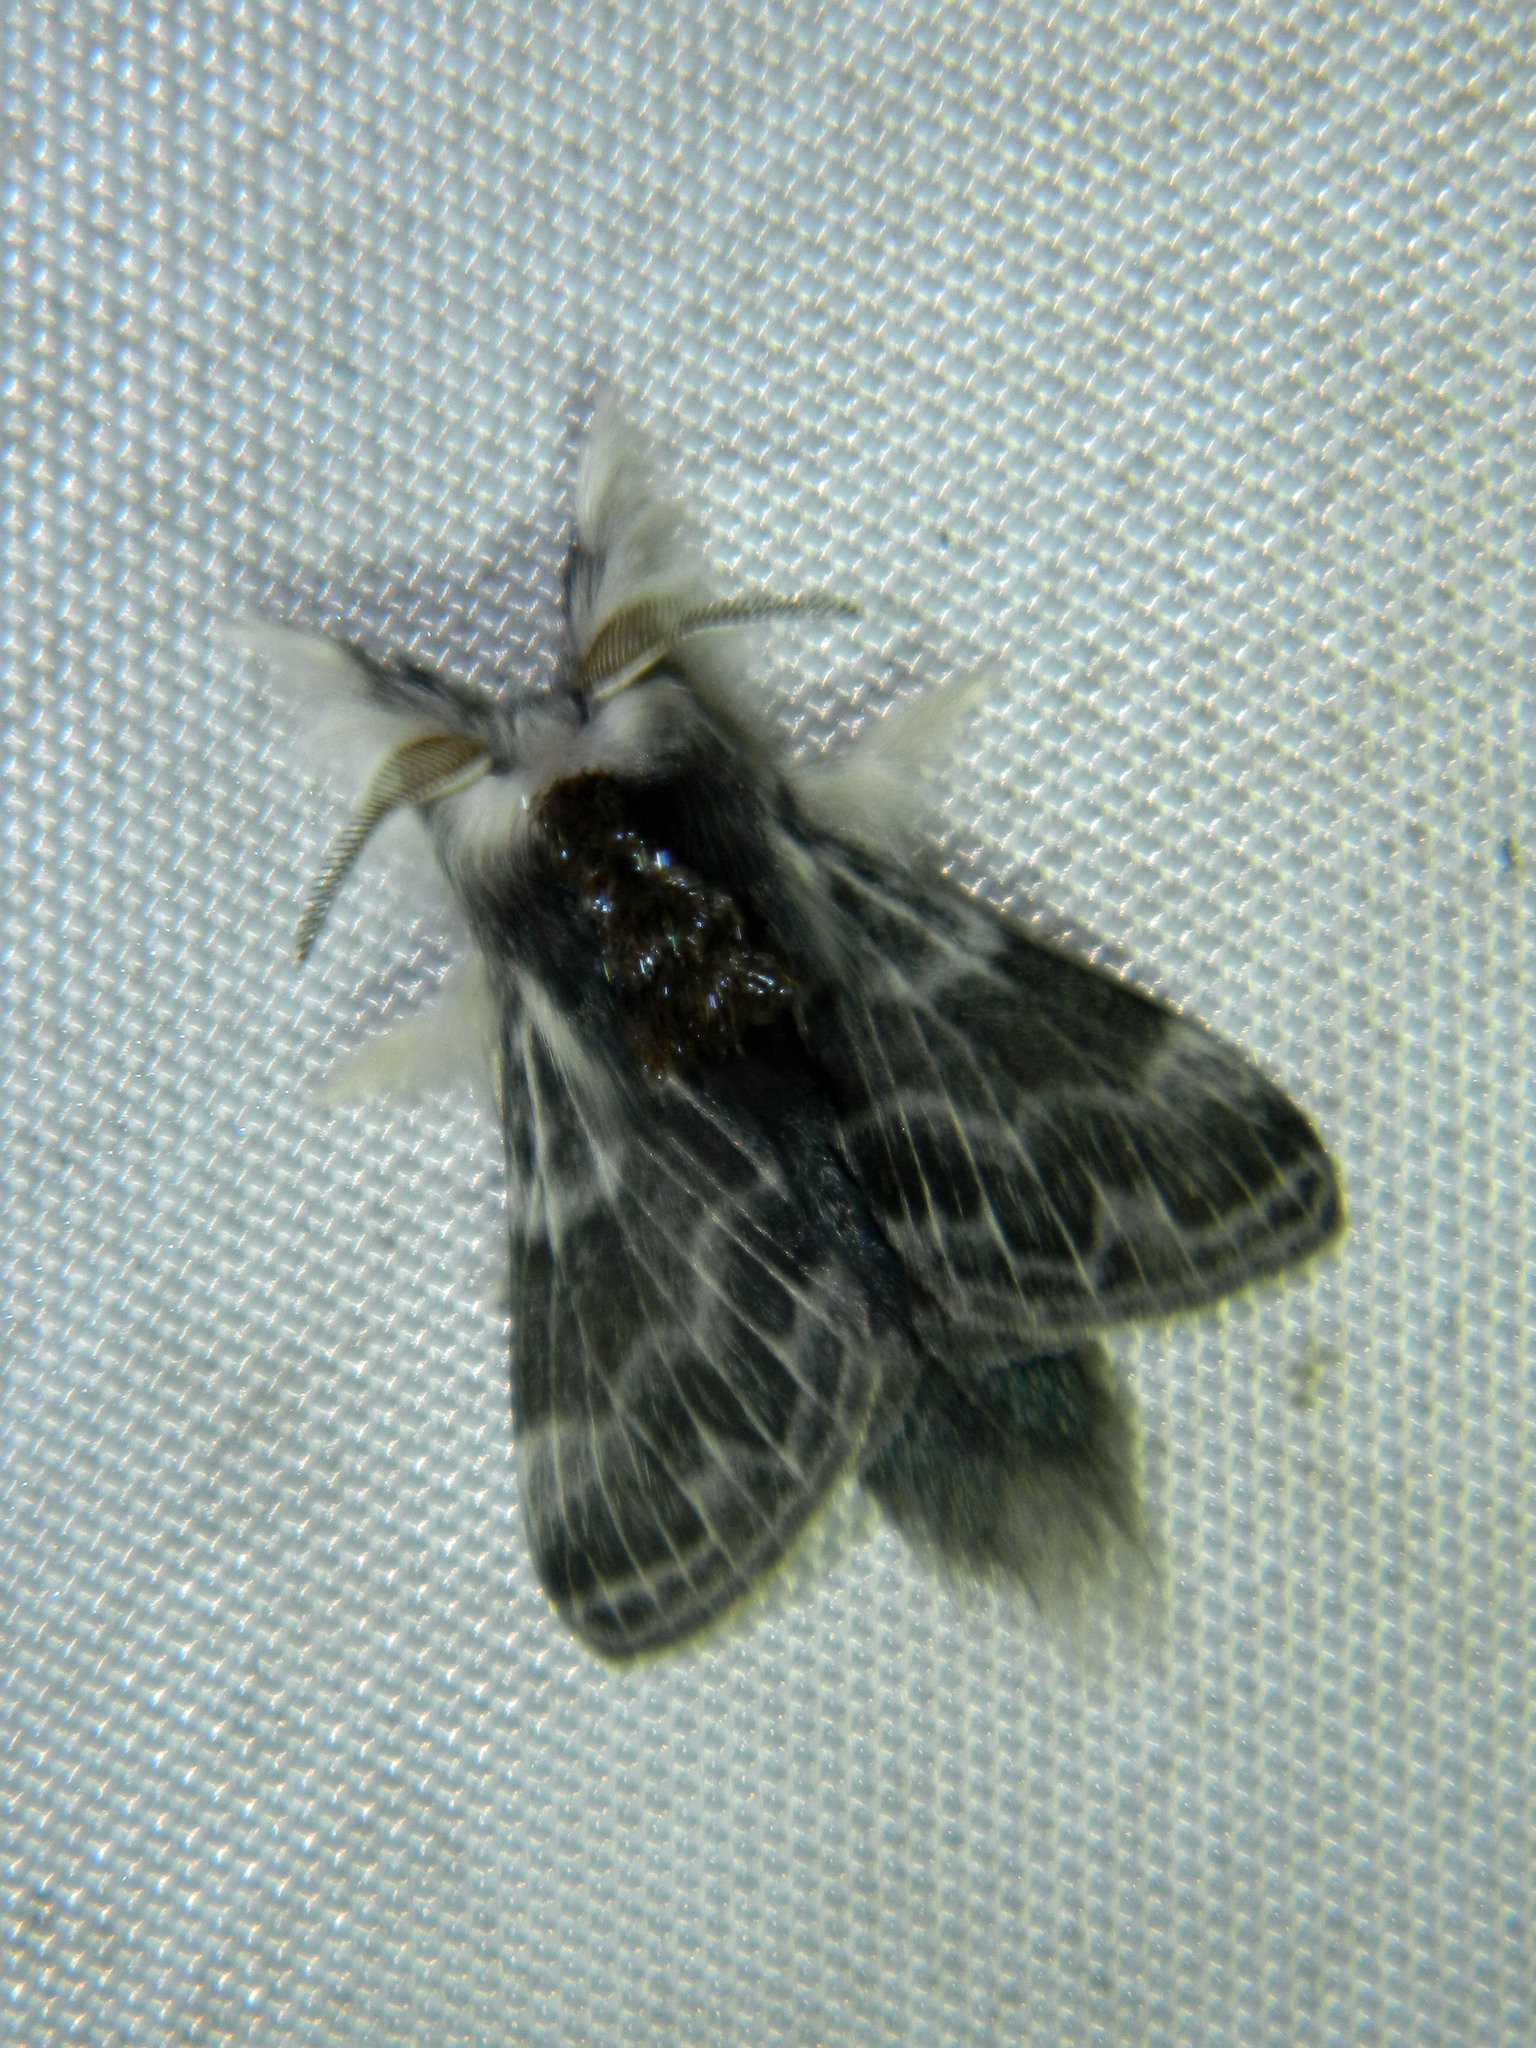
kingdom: Animalia
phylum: Arthropoda
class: Insecta
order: Lepidoptera
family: Lasiocampidae
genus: Tolype
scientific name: Tolype laricis
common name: Larch tolype moth
